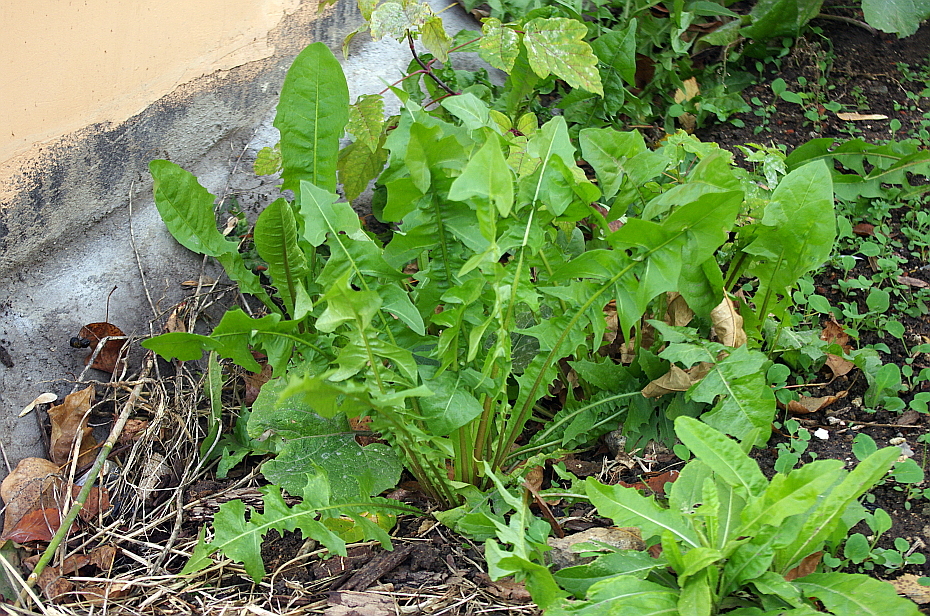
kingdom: Plantae
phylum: Tracheophyta
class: Magnoliopsida
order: Asterales
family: Asteraceae
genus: Taraxacum
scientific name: Taraxacum officinale
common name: Common dandelion
